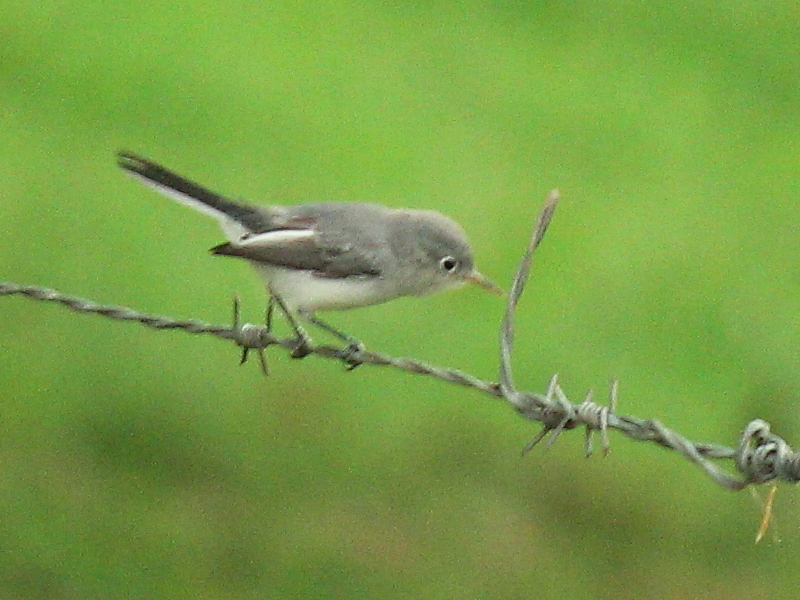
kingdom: Animalia
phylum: Chordata
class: Aves
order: Passeriformes
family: Polioptilidae
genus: Polioptila
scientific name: Polioptila caerulea
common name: Blue-gray gnatcatcher
